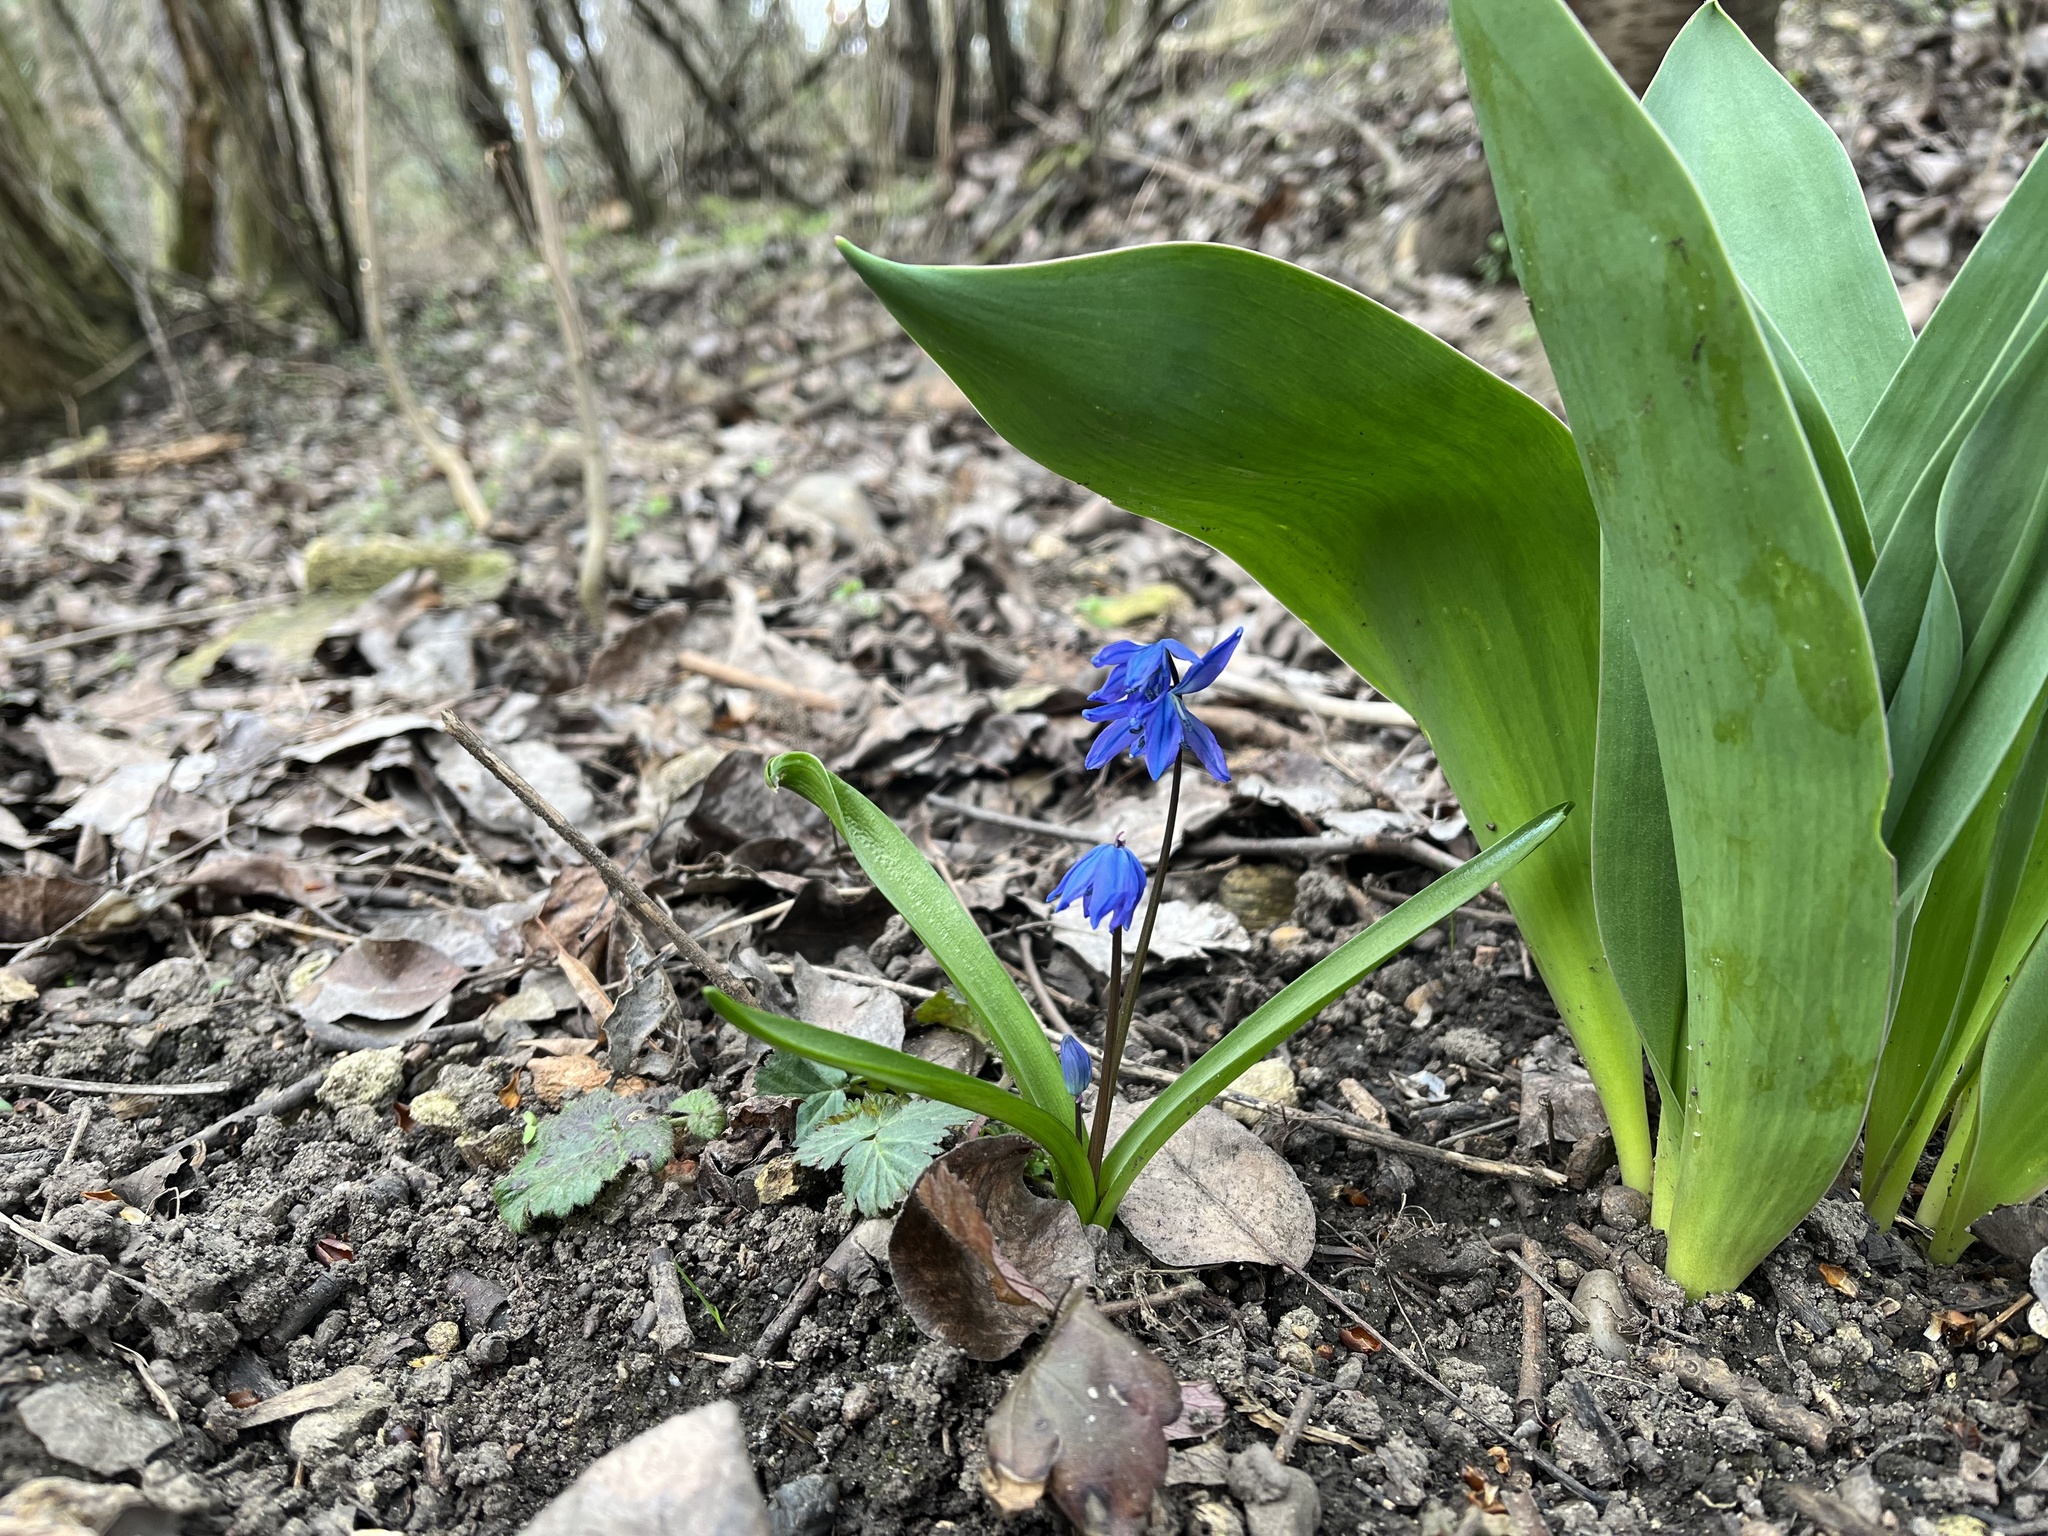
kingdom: Plantae
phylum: Tracheophyta
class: Liliopsida
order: Asparagales
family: Asparagaceae
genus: Scilla
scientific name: Scilla siberica
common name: Siberian squill
